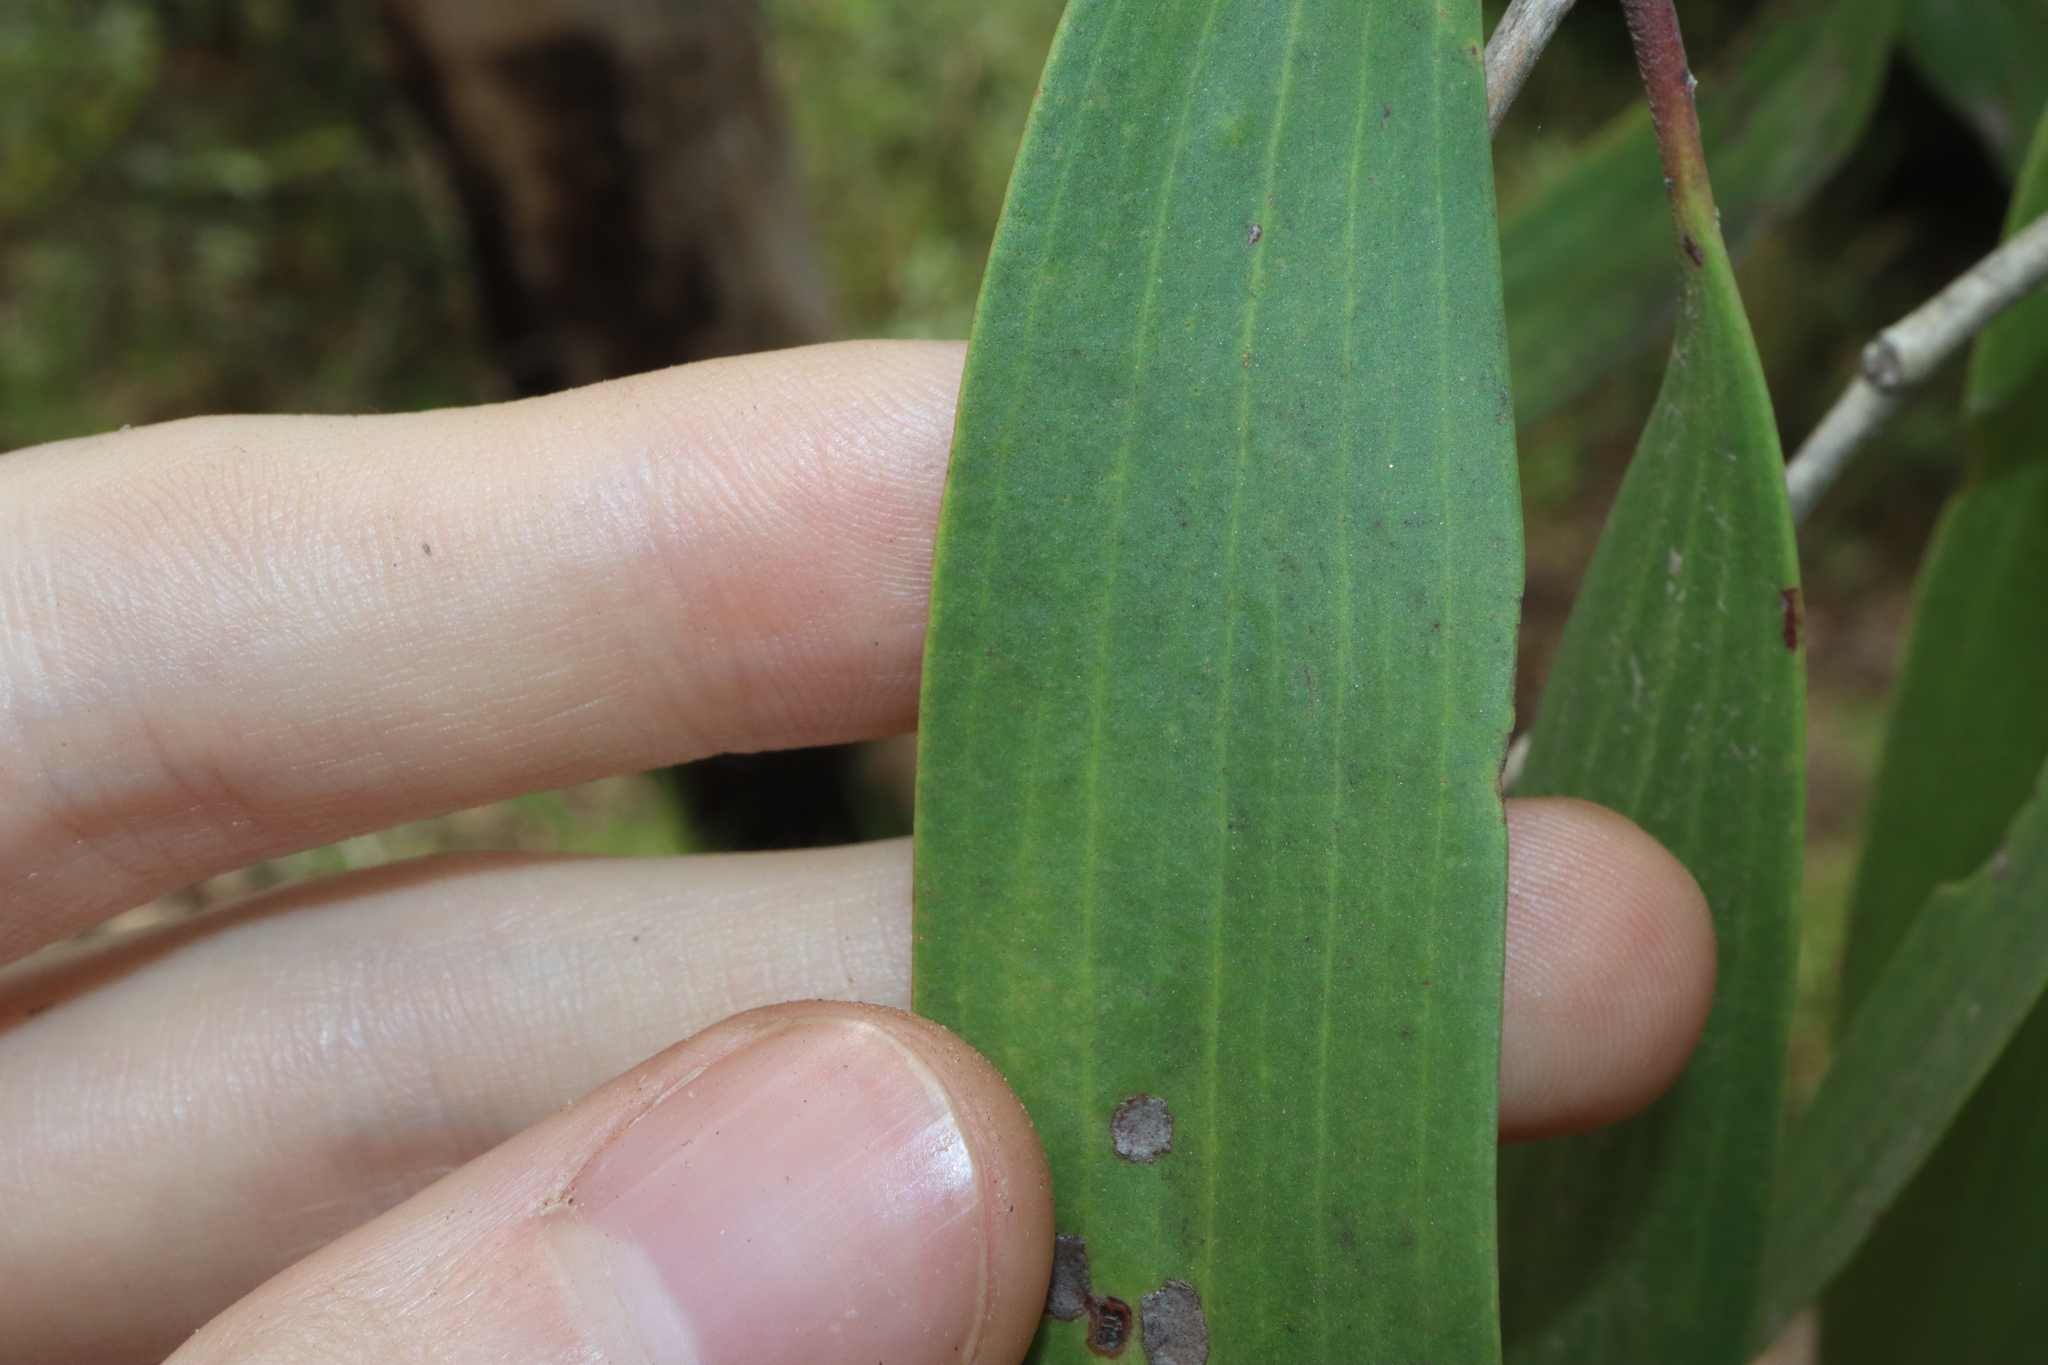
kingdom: Plantae
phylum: Tracheophyta
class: Magnoliopsida
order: Myrtales
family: Myrtaceae
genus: Melaleuca
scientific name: Melaleuca leucadendra
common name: Weeping paperbark
